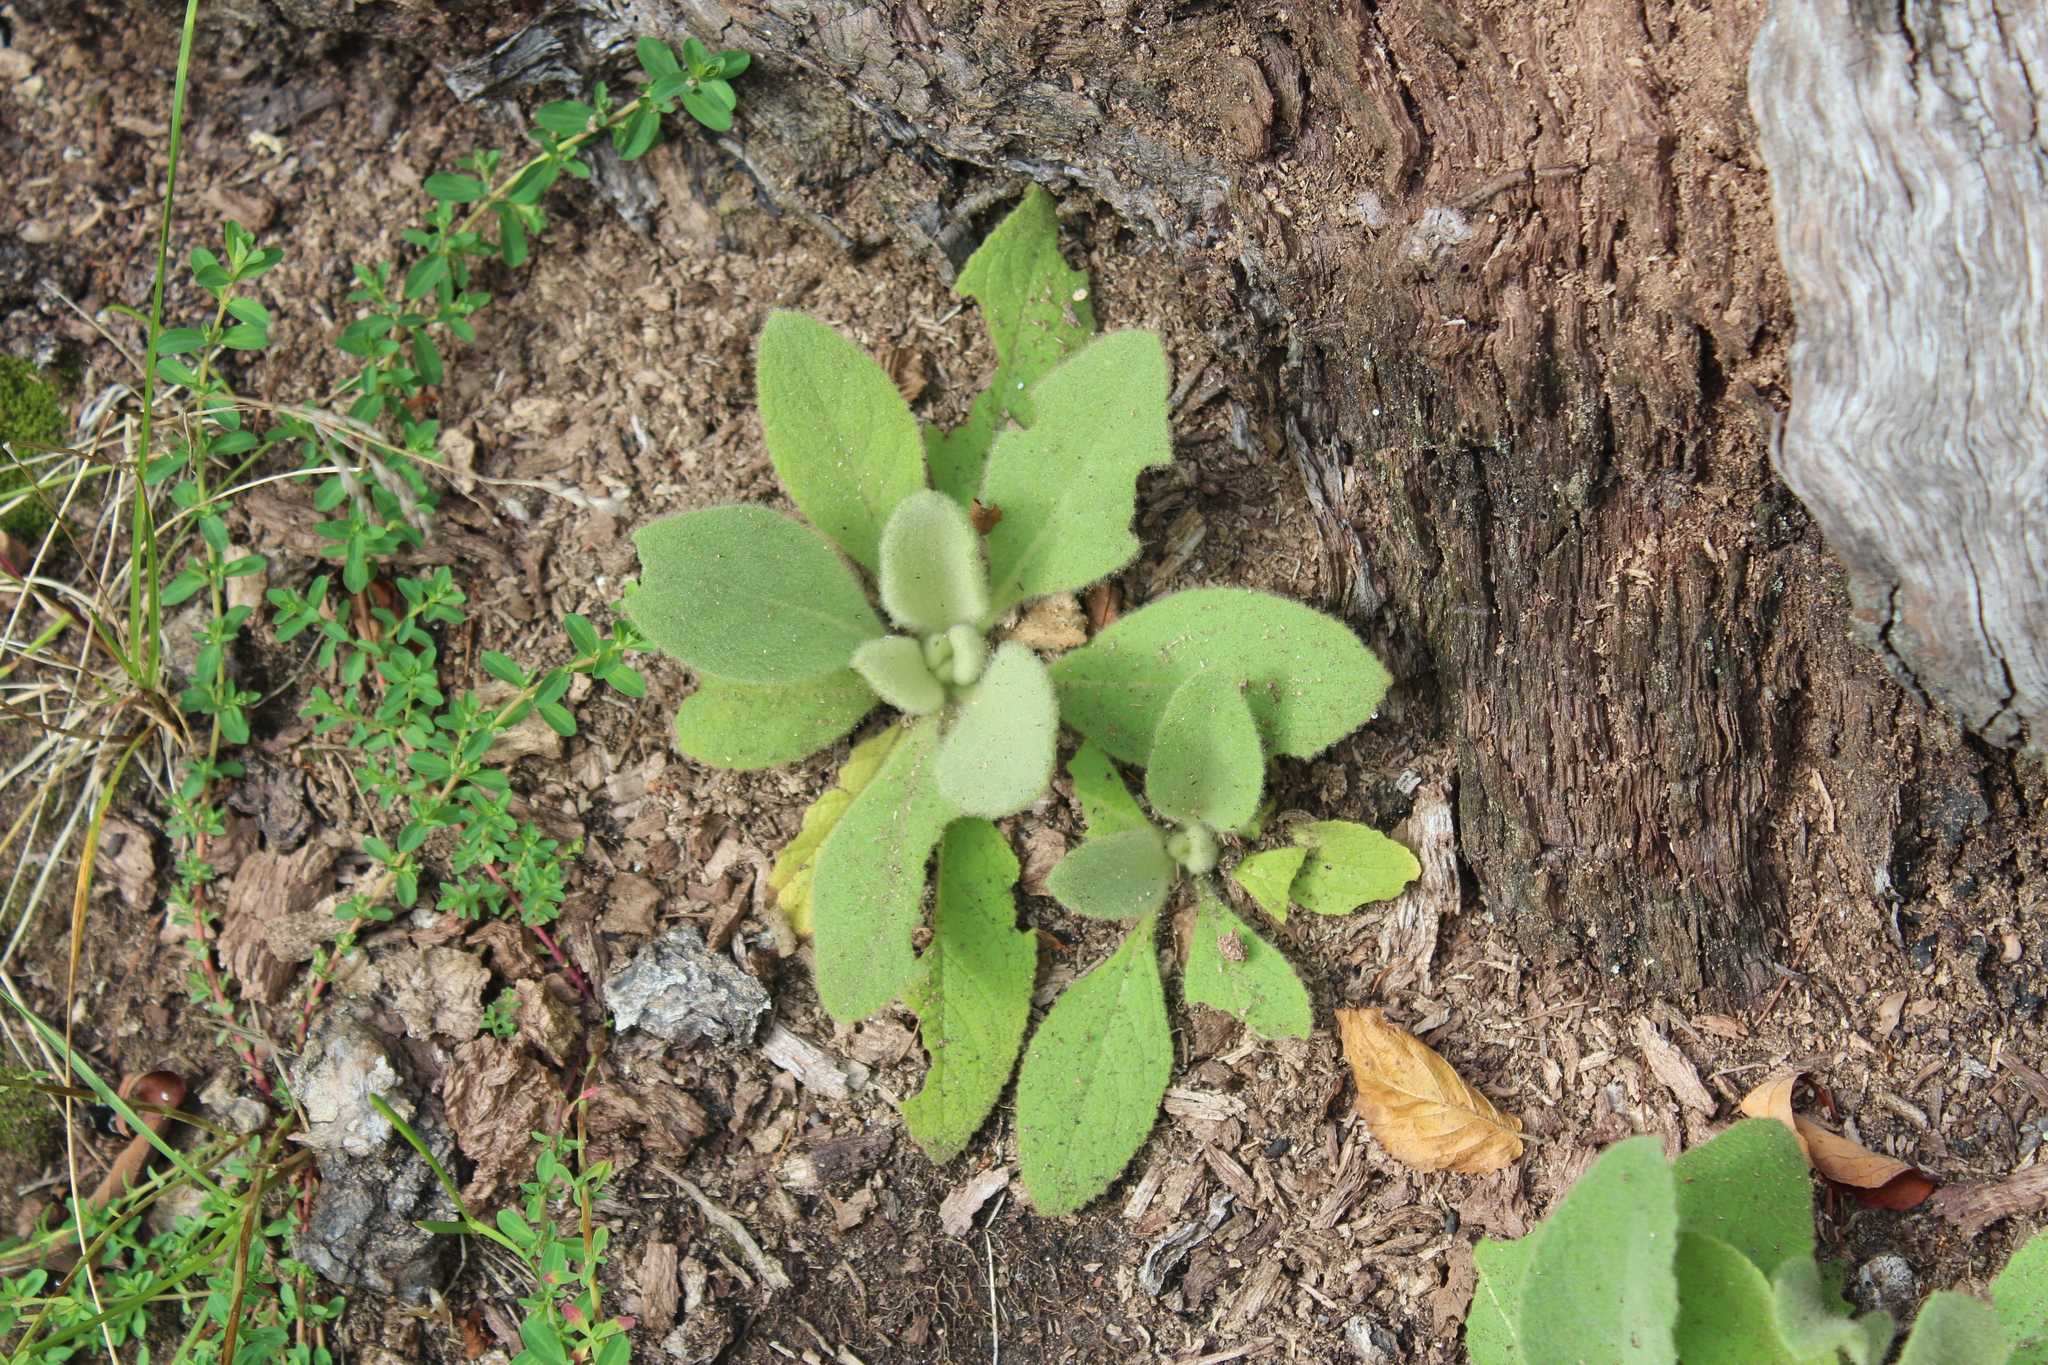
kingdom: Plantae
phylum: Tracheophyta
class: Magnoliopsida
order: Lamiales
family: Scrophulariaceae
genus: Verbascum
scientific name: Verbascum thapsus
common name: Common mullein
